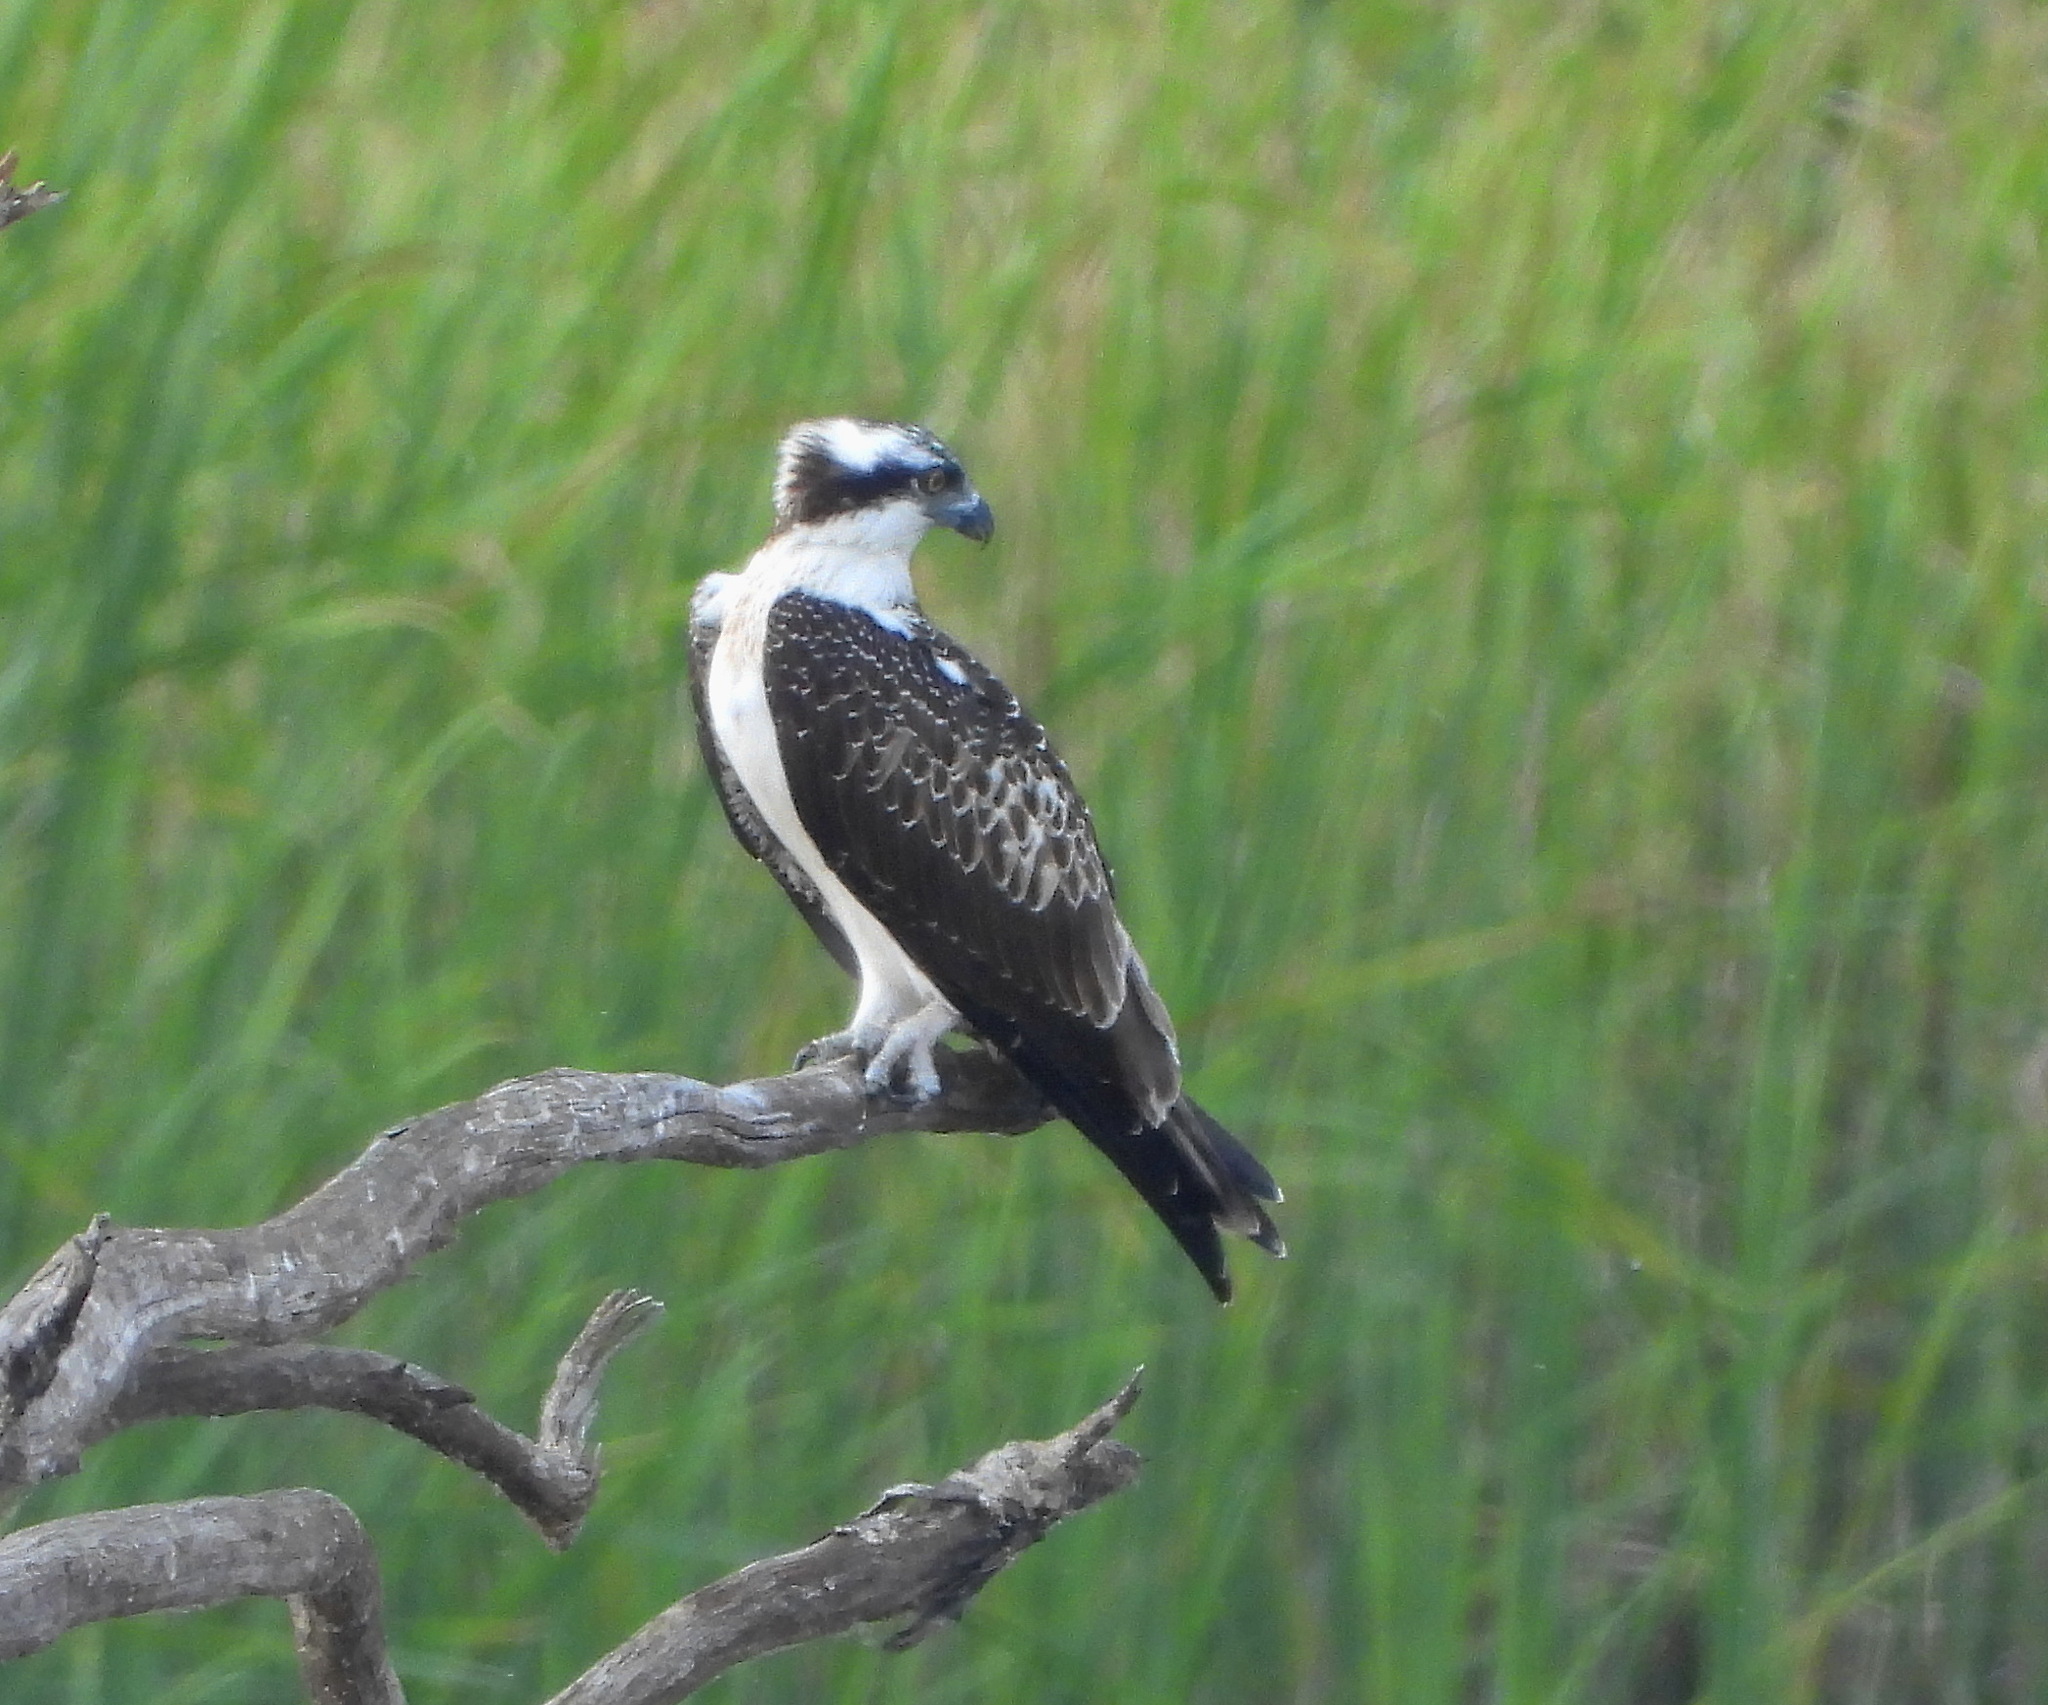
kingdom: Animalia
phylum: Chordata
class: Aves
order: Accipitriformes
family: Pandionidae
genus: Pandion
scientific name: Pandion haliaetus
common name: Osprey
